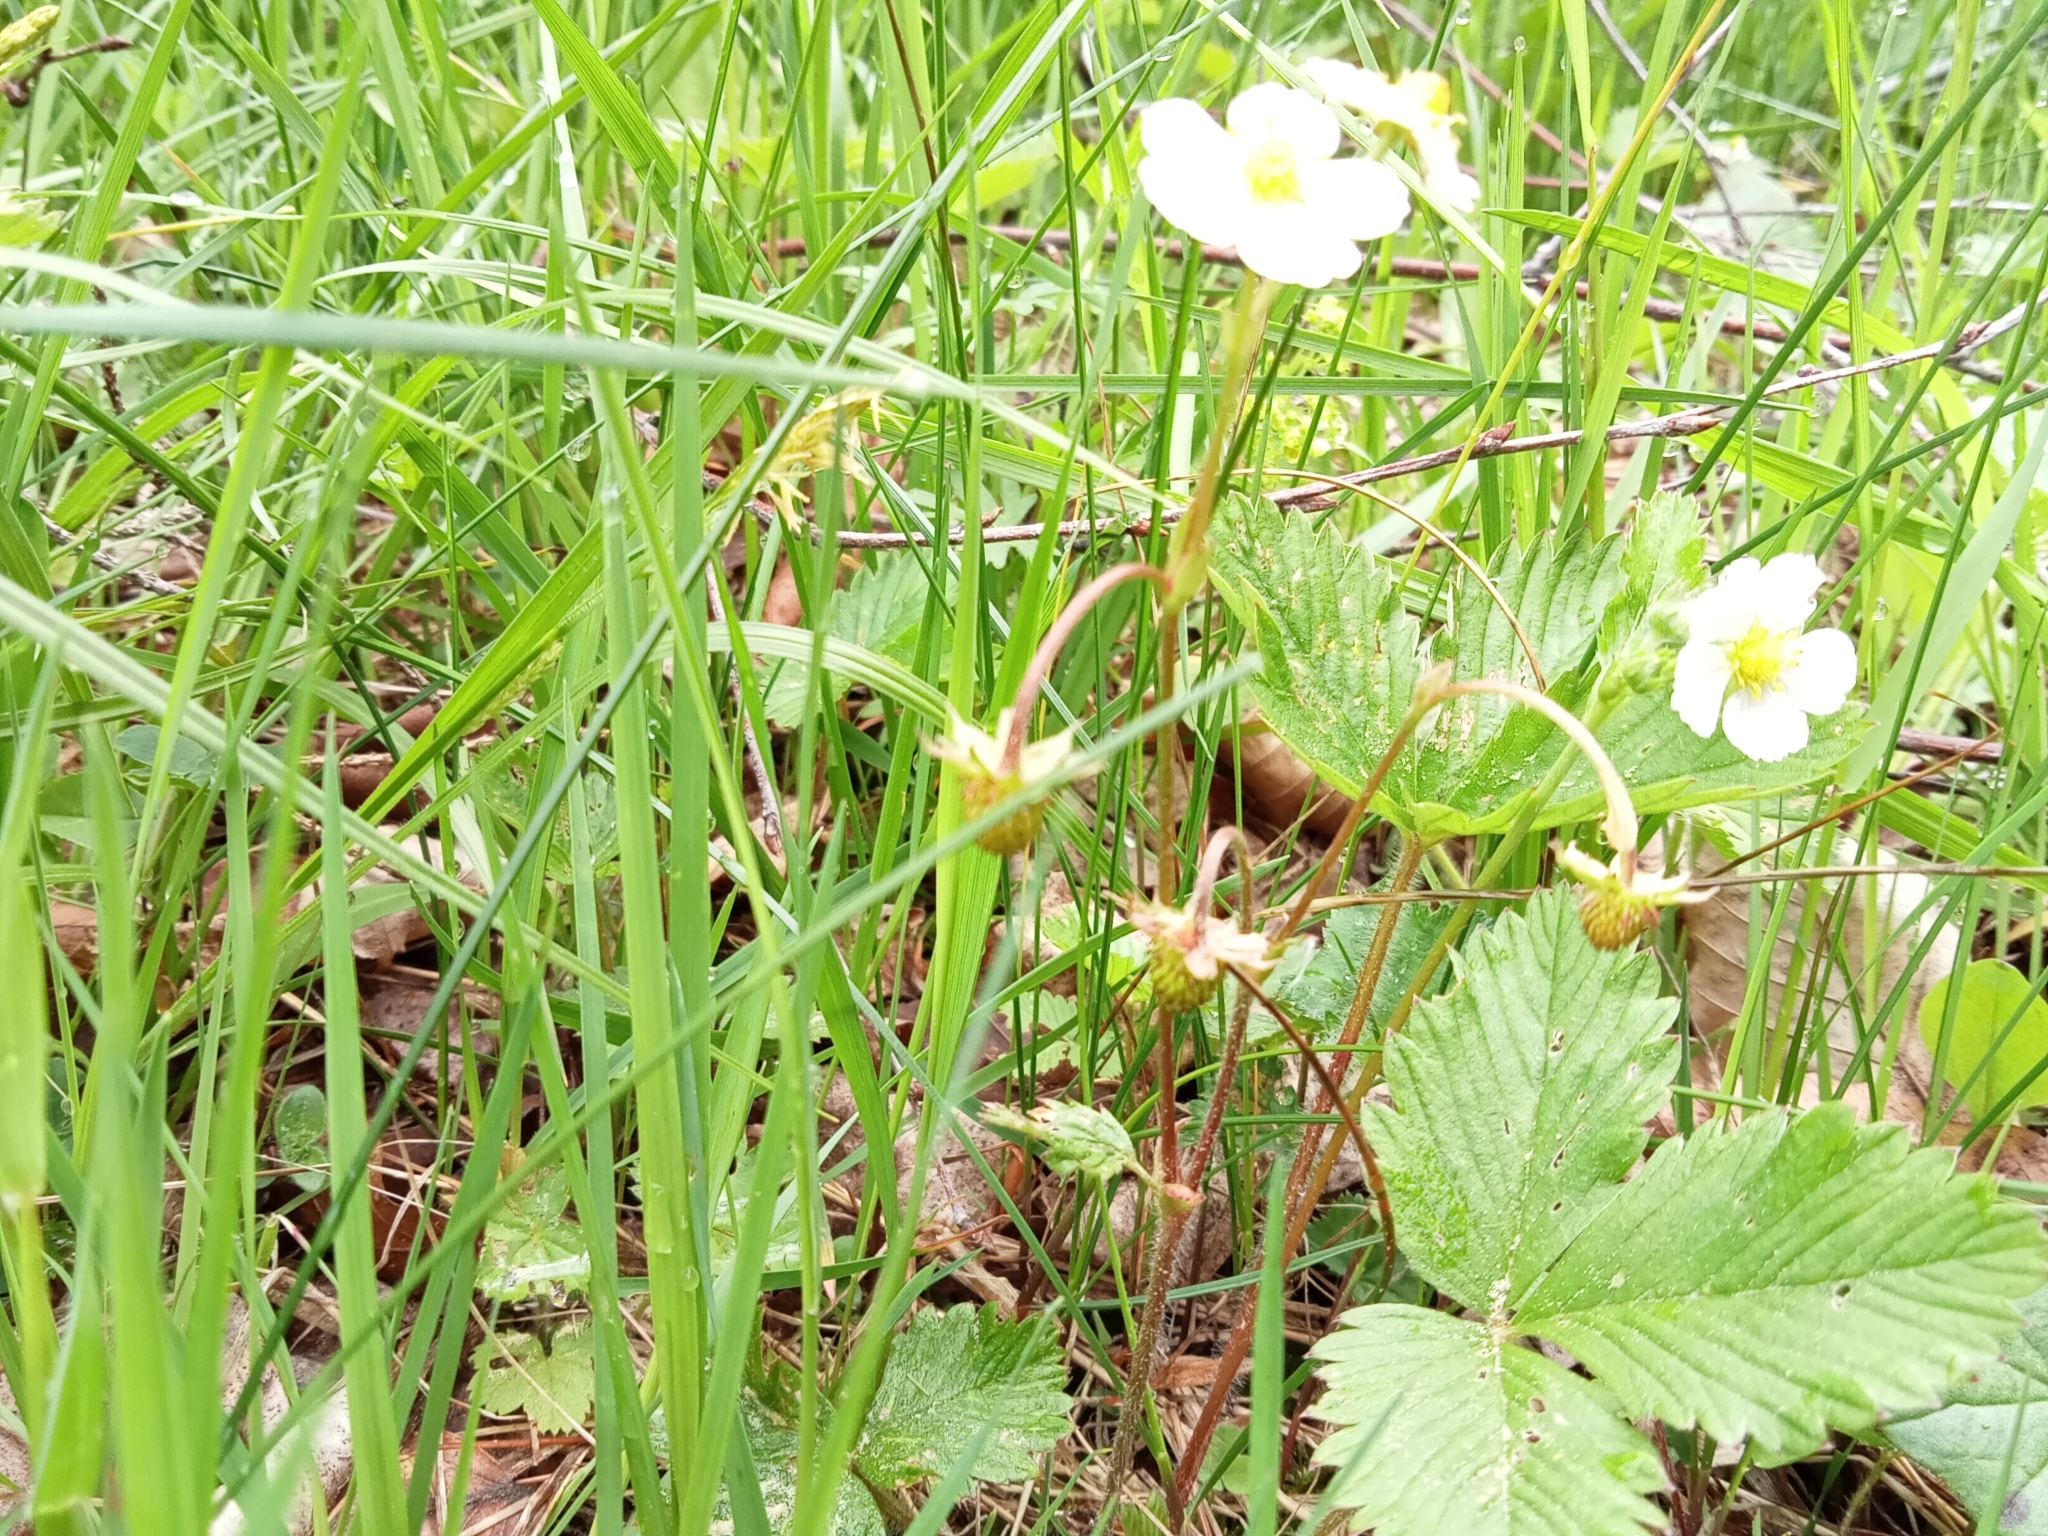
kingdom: Plantae
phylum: Tracheophyta
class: Magnoliopsida
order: Rosales
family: Rosaceae
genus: Fragaria
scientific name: Fragaria vesca
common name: Wild strawberry
